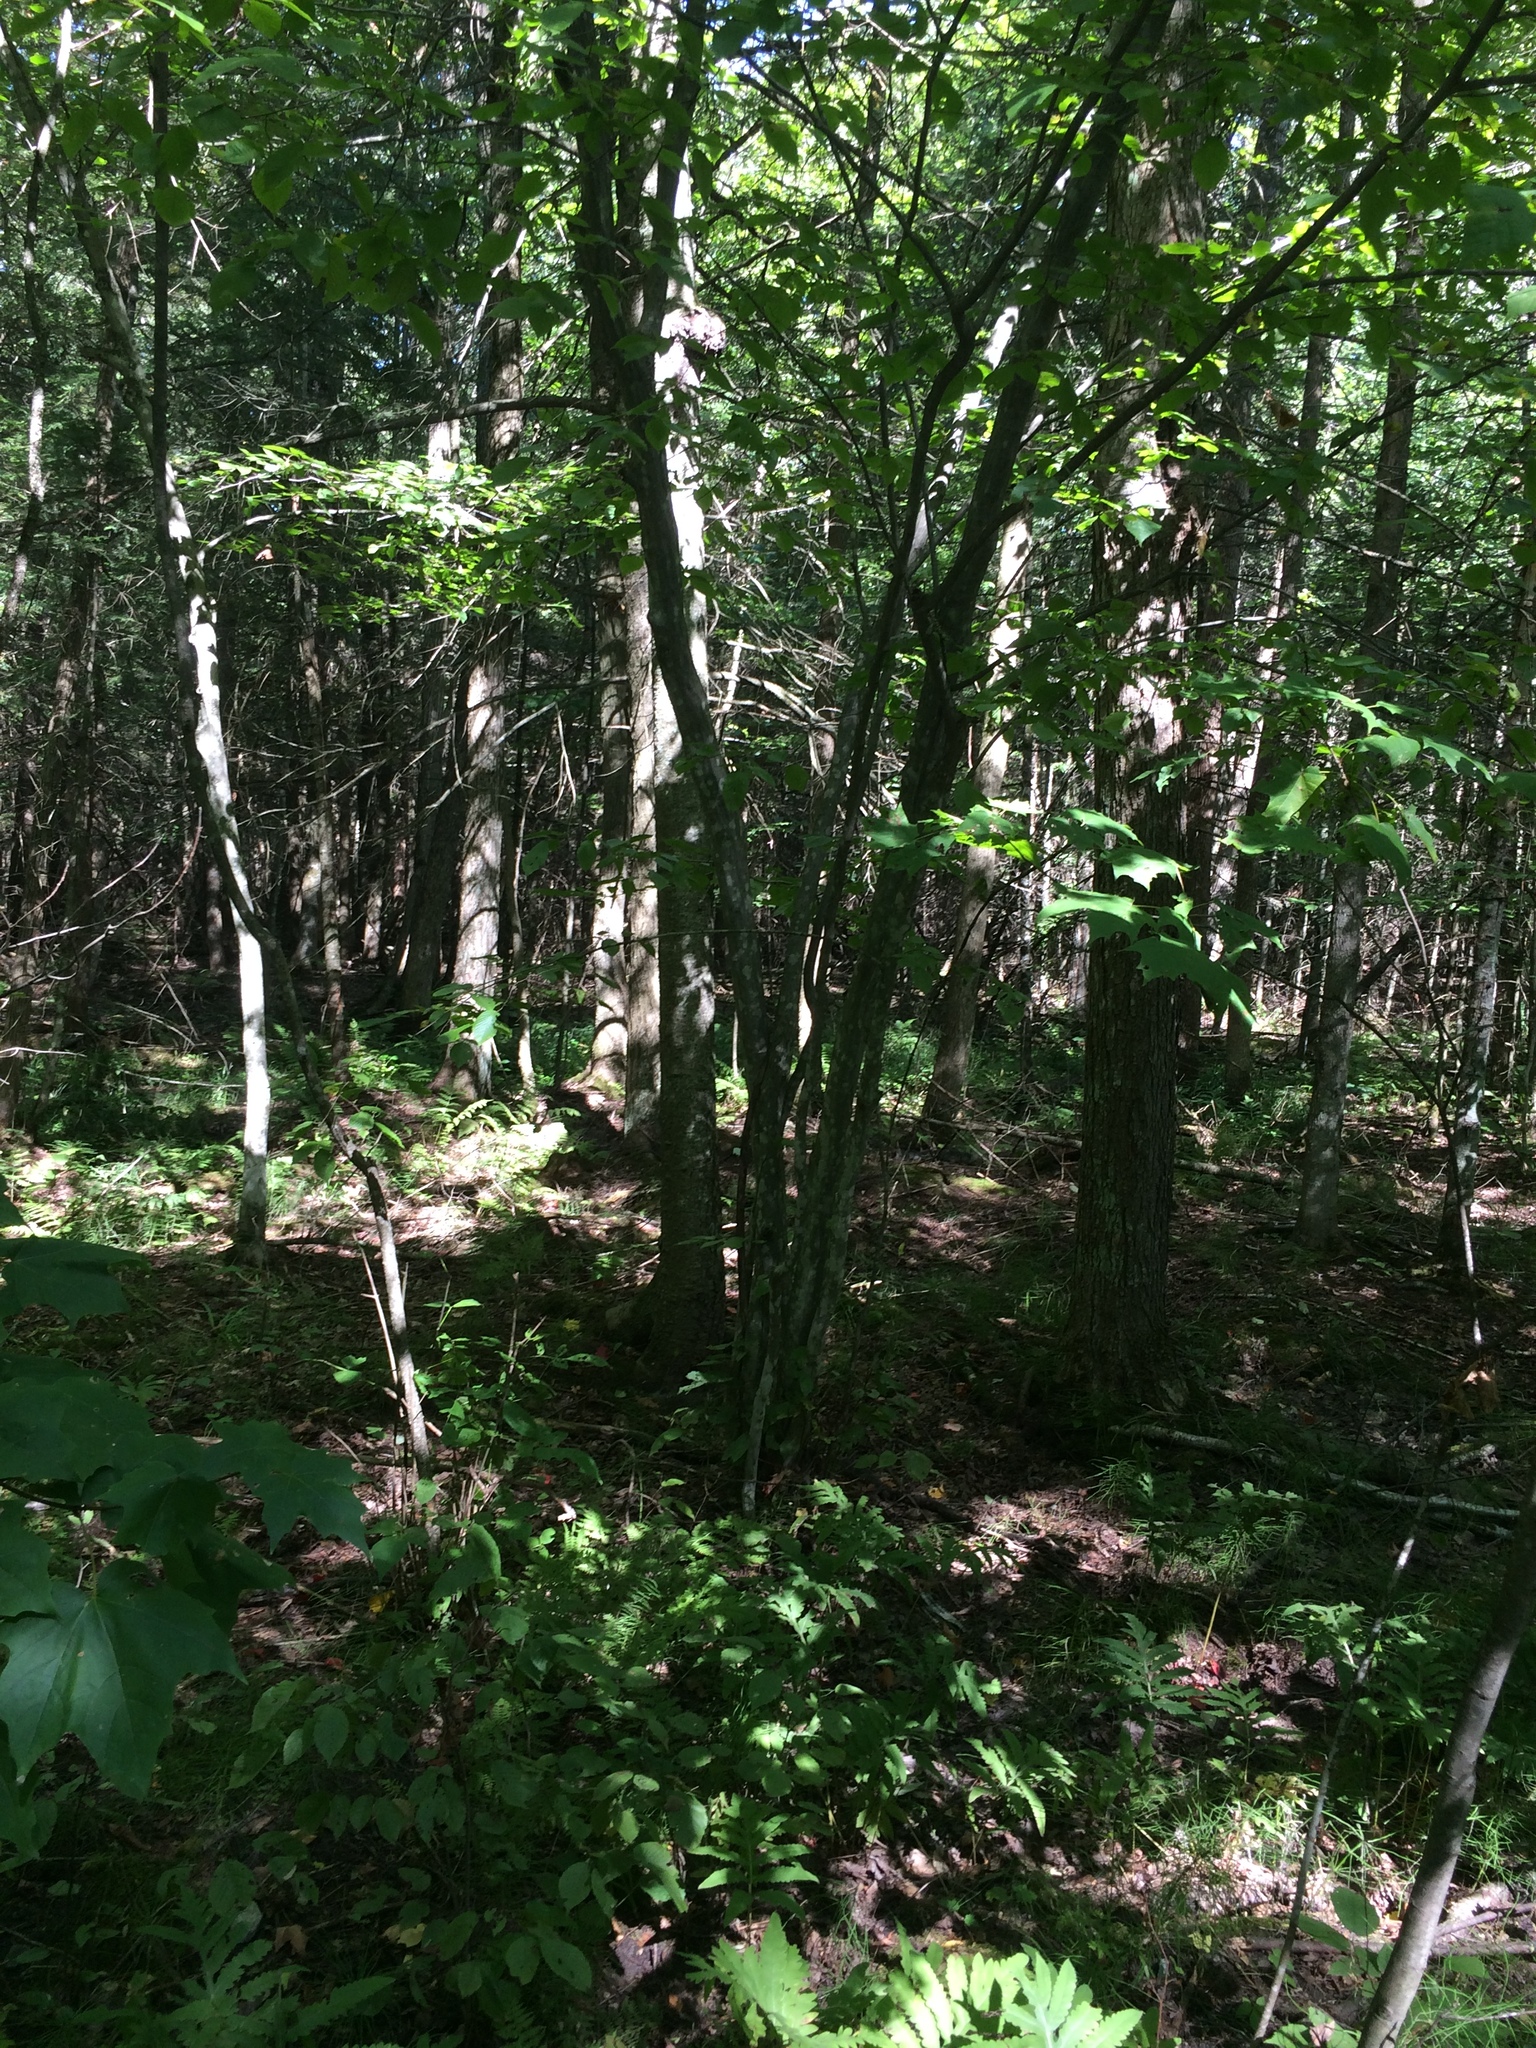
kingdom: Plantae
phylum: Tracheophyta
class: Magnoliopsida
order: Fagales
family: Betulaceae
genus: Carpinus
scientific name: Carpinus caroliniana
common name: American hornbeam
